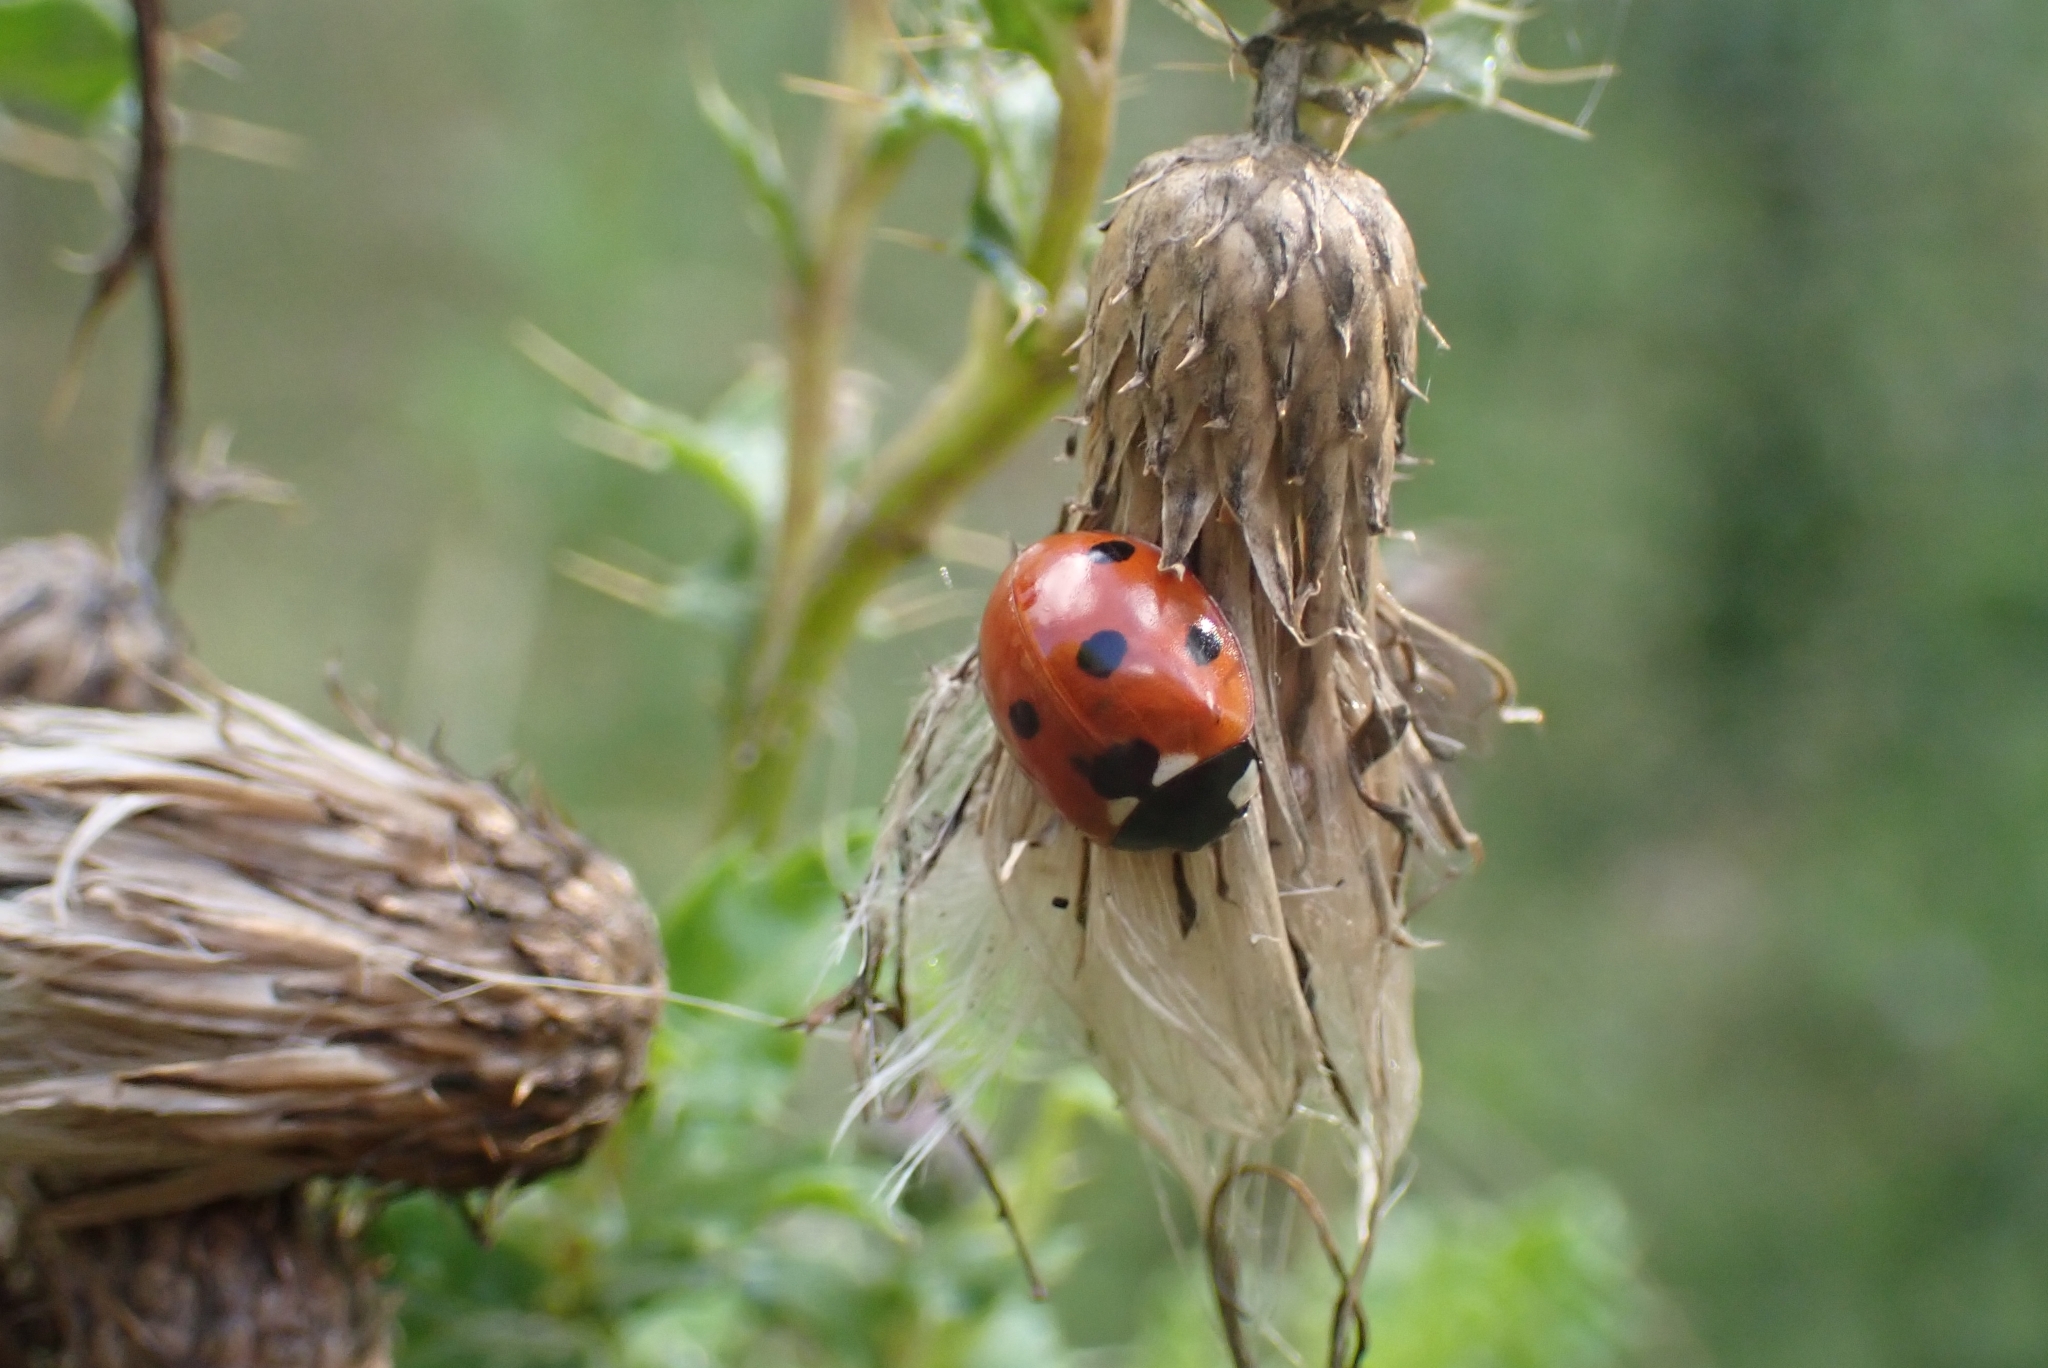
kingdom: Animalia
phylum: Arthropoda
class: Insecta
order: Coleoptera
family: Coccinellidae
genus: Coccinella
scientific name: Coccinella septempunctata
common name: Sevenspotted lady beetle
